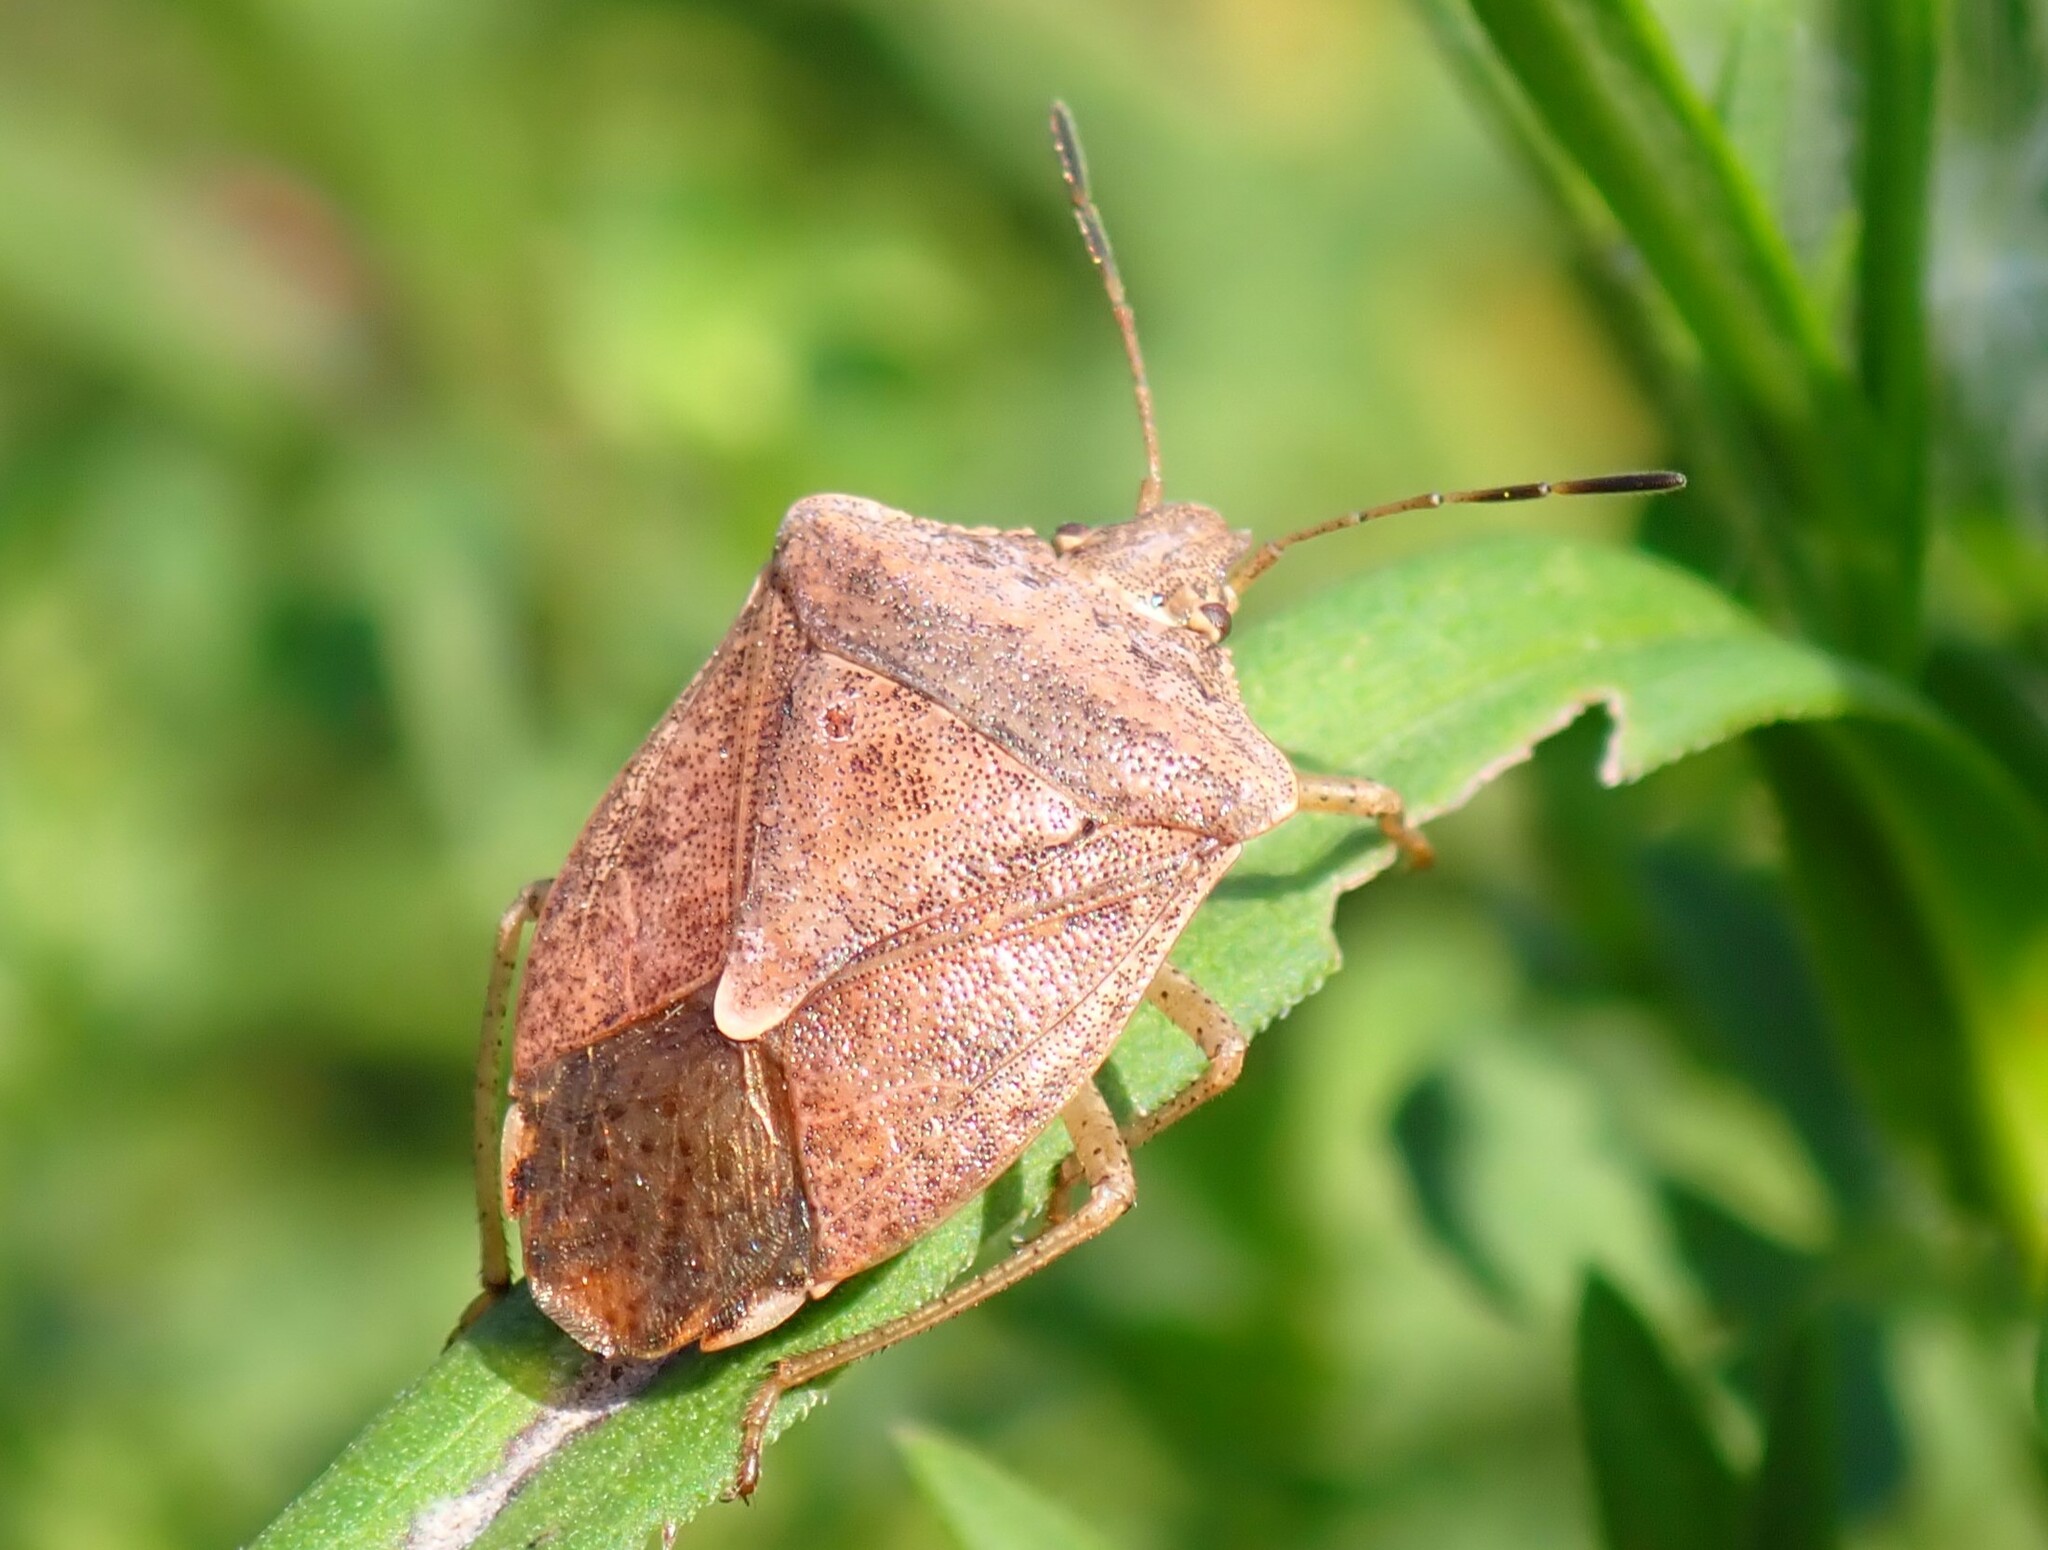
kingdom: Animalia
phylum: Arthropoda
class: Insecta
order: Hemiptera
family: Pentatomidae
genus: Euschistus
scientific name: Euschistus servus
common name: Brown stink bug
